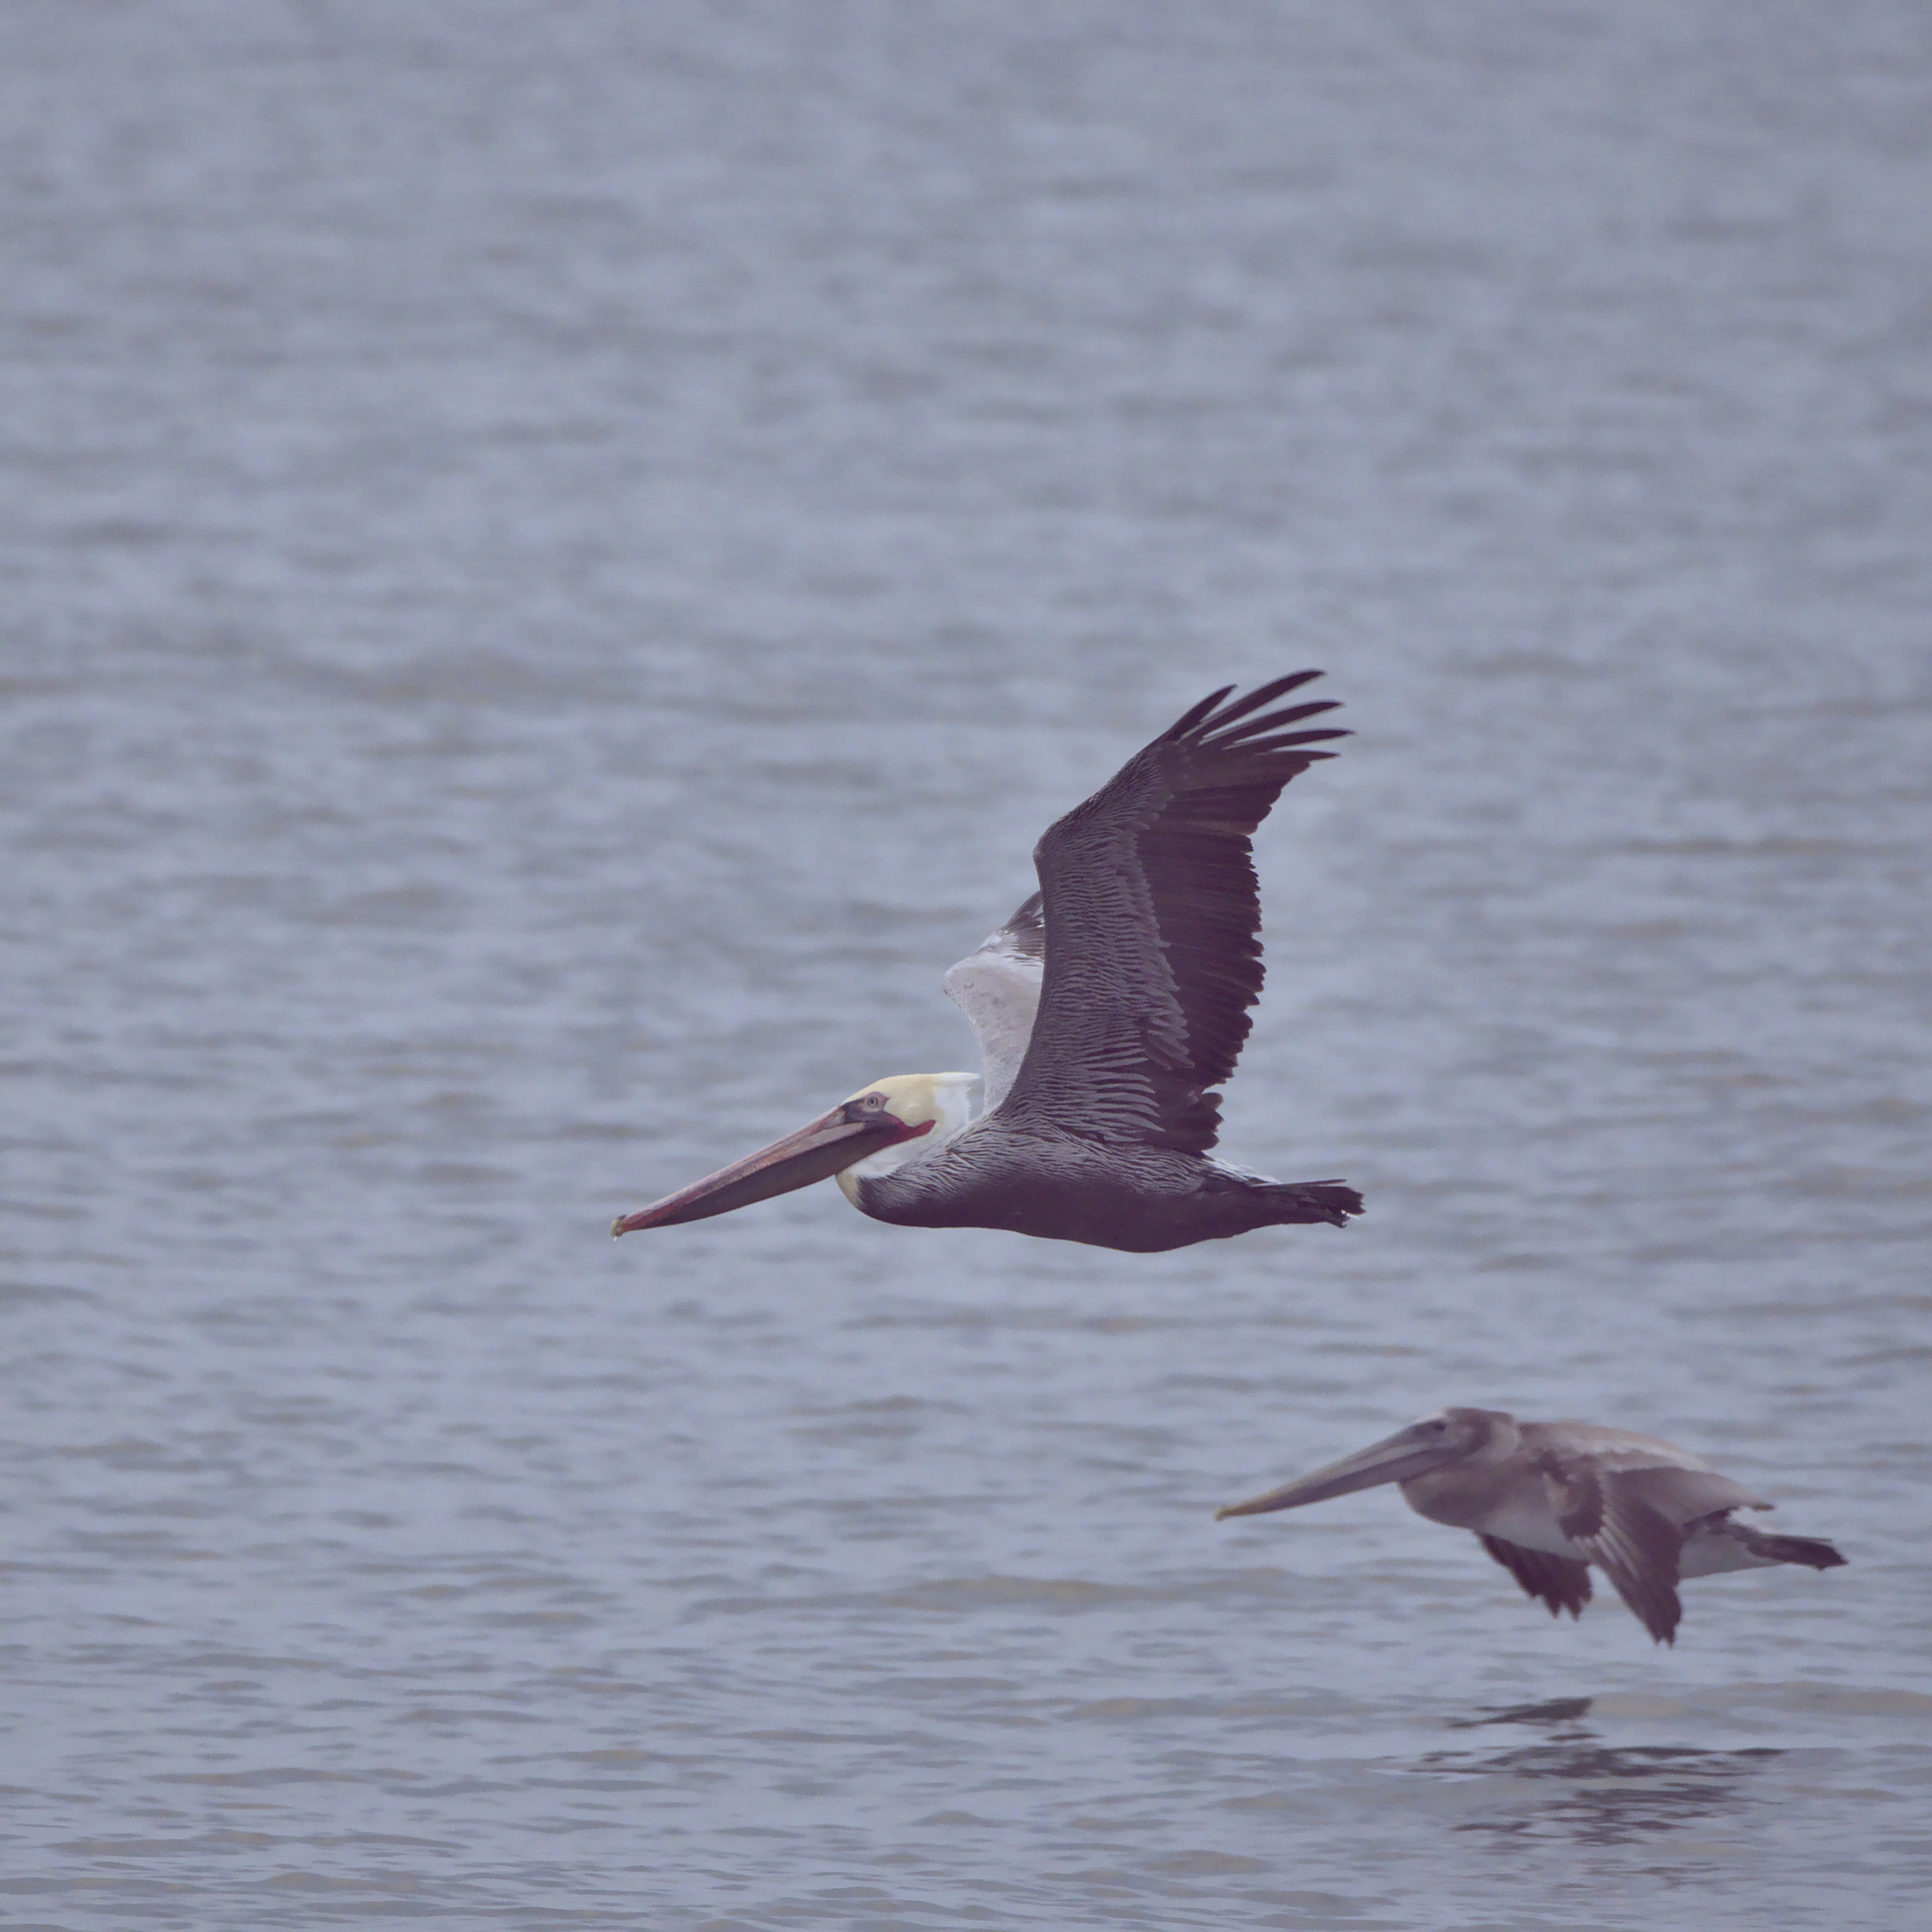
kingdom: Animalia
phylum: Chordata
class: Aves
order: Pelecaniformes
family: Pelecanidae
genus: Pelecanus
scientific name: Pelecanus occidentalis
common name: Brown pelican
